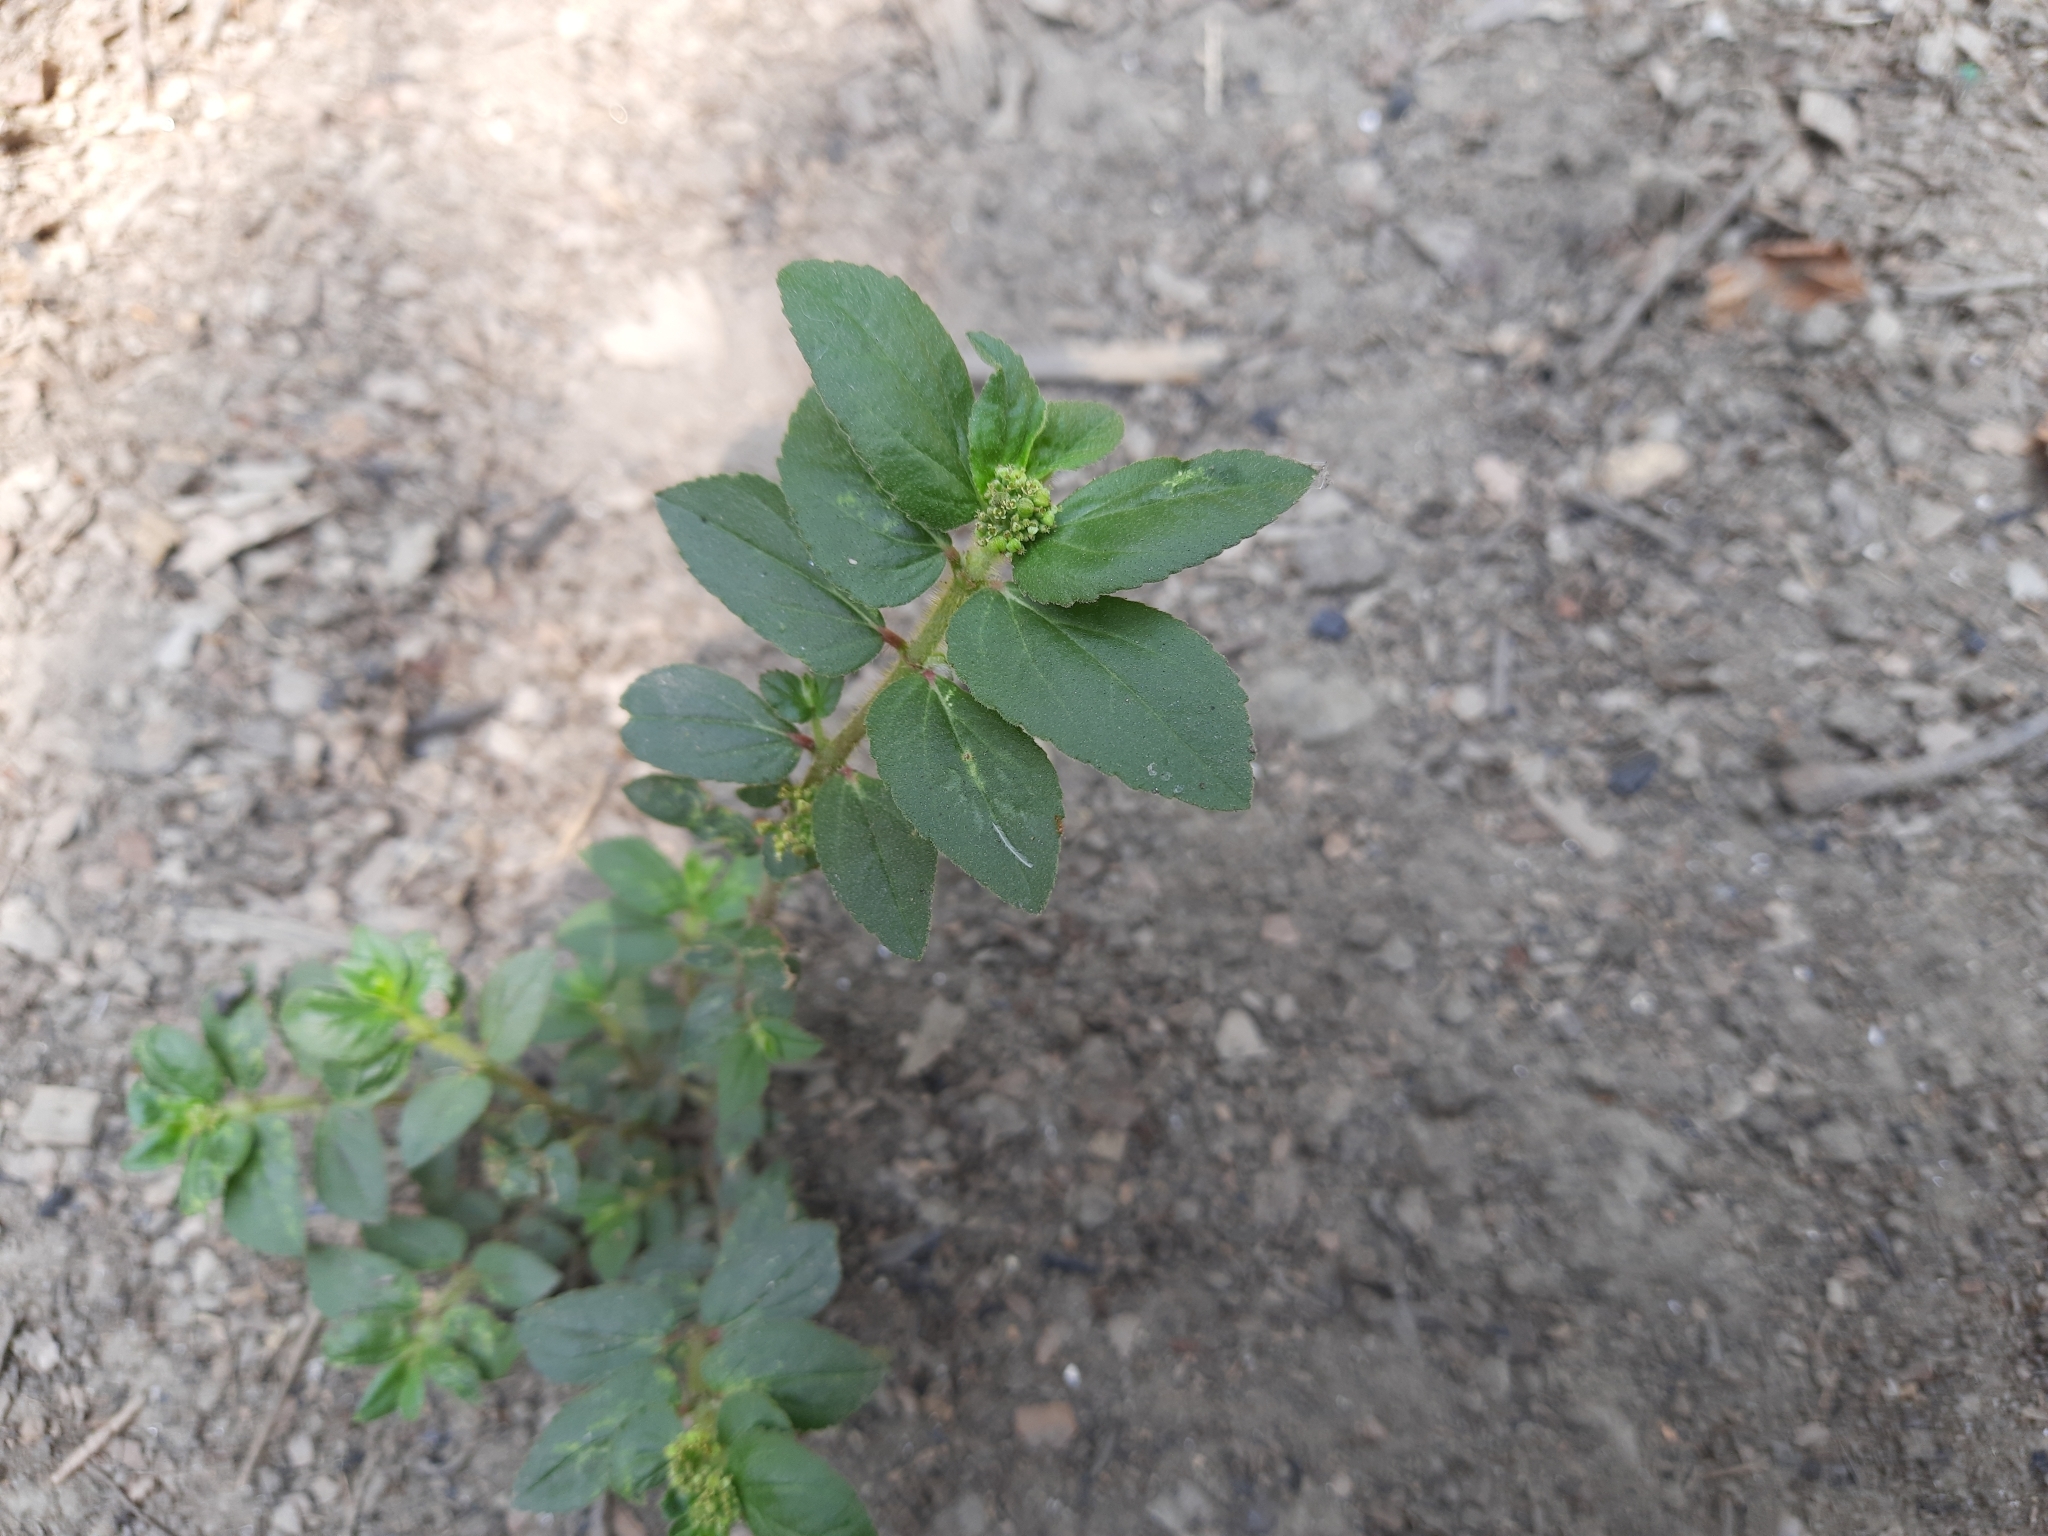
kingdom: Plantae
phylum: Tracheophyta
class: Magnoliopsida
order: Malpighiales
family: Euphorbiaceae
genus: Euphorbia
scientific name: Euphorbia hirta
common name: Pillpod sandmat
